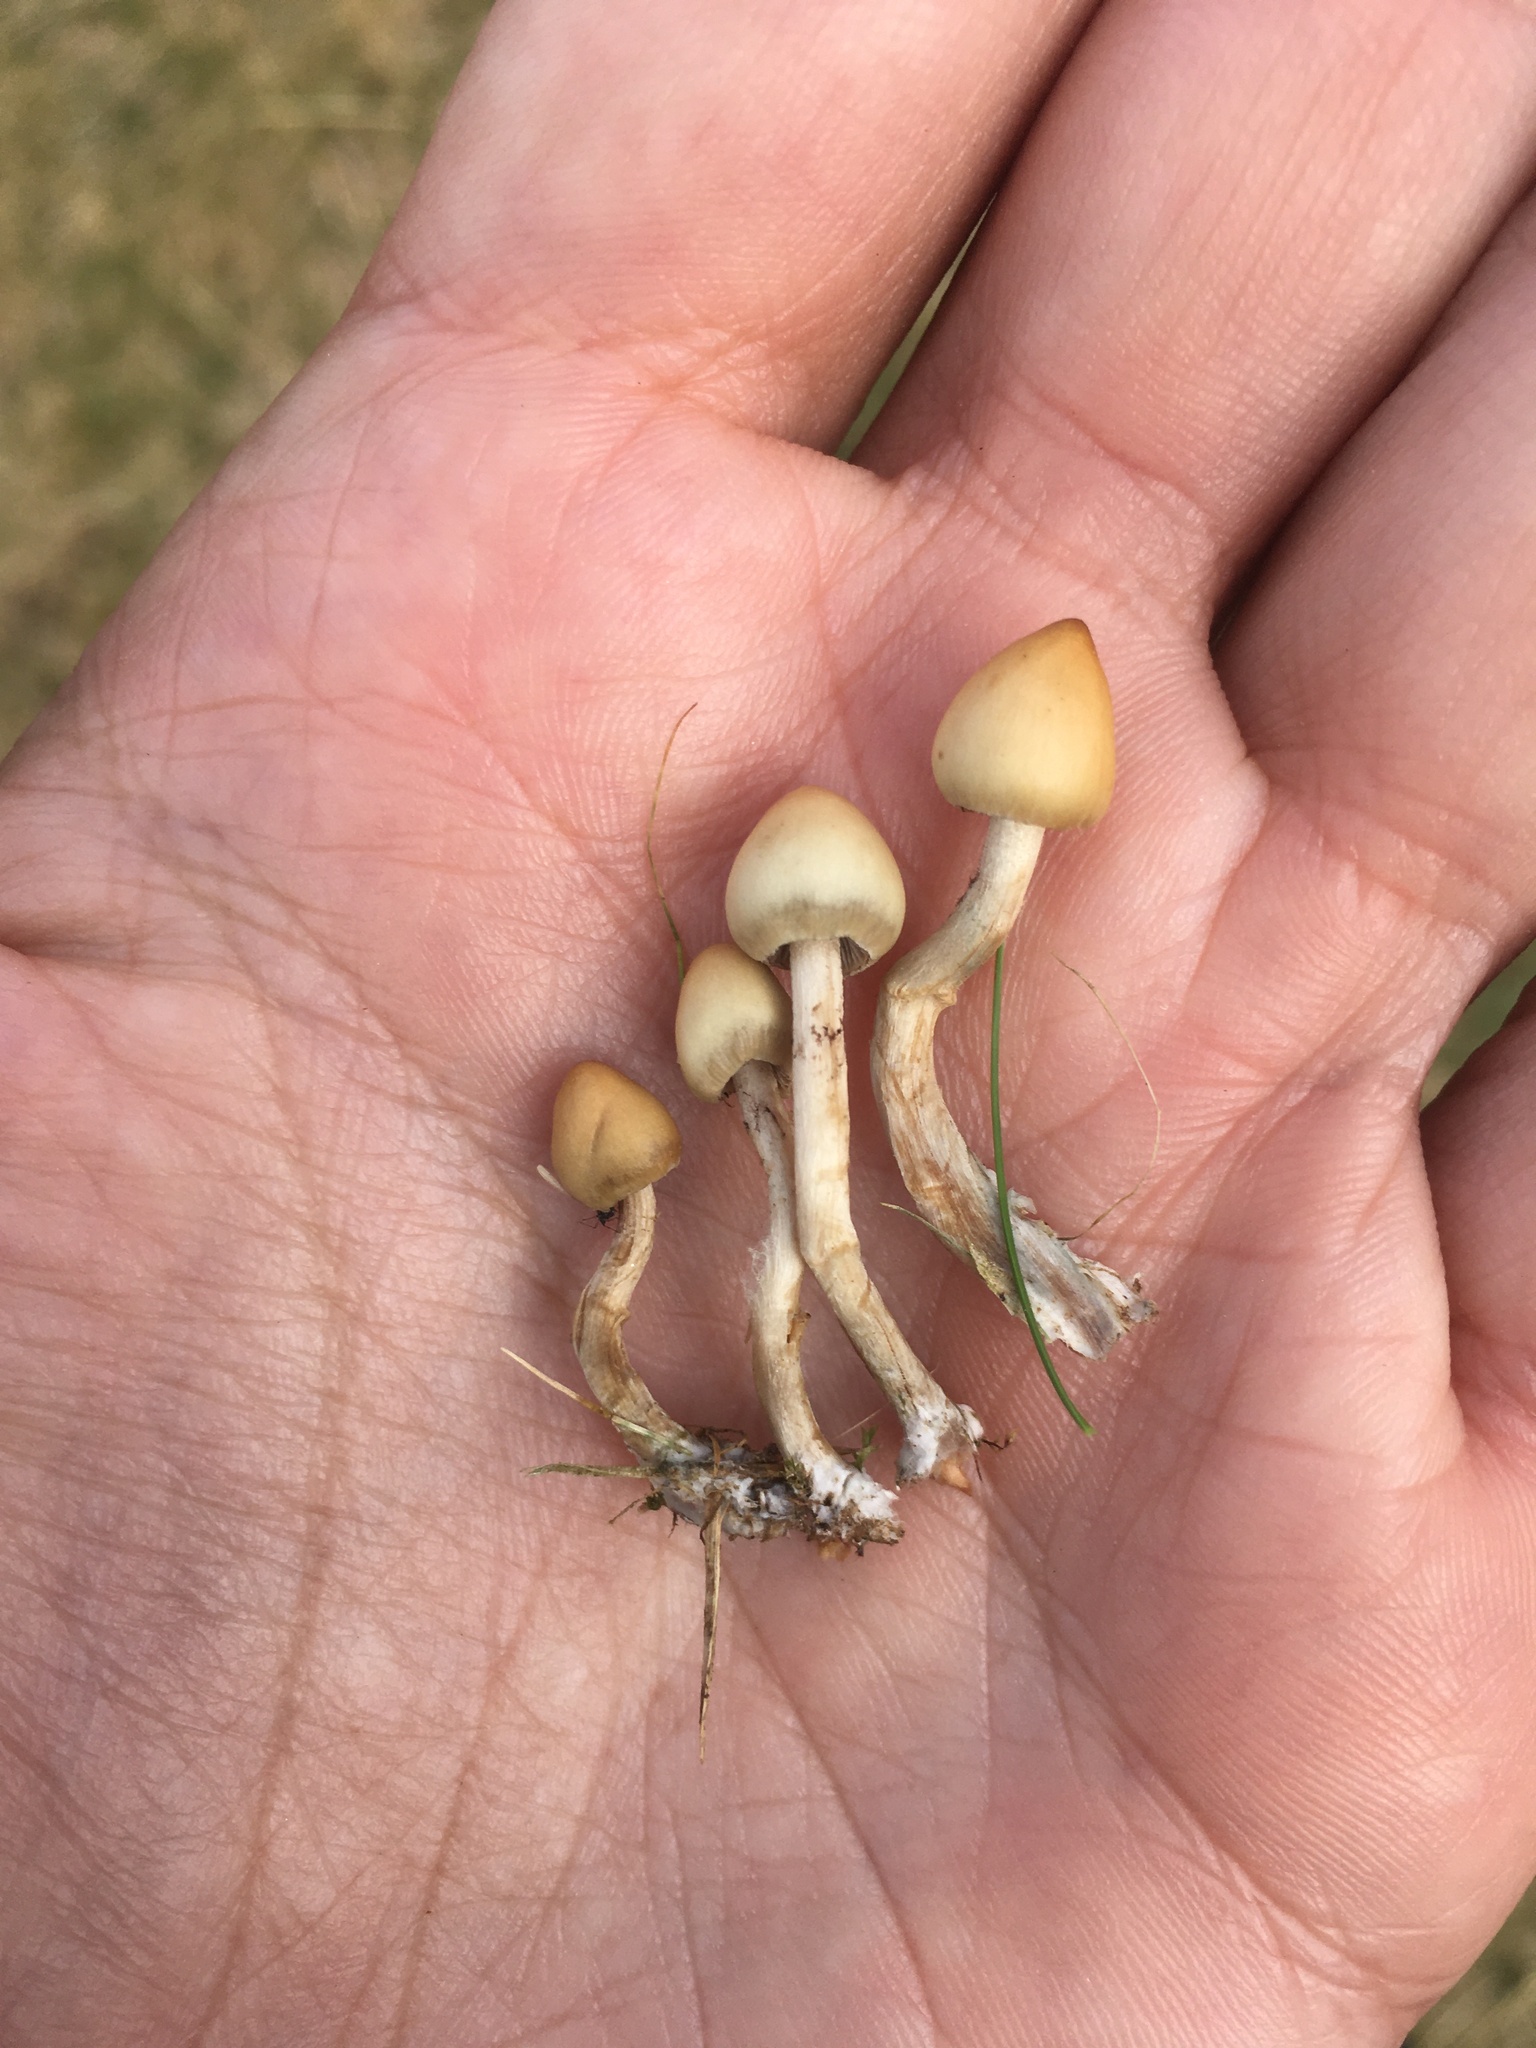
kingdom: Fungi
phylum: Basidiomycota
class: Agaricomycetes
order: Agaricales
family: Hymenogastraceae
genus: Psilocybe
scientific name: Psilocybe semilanceata
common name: Liberty cap
